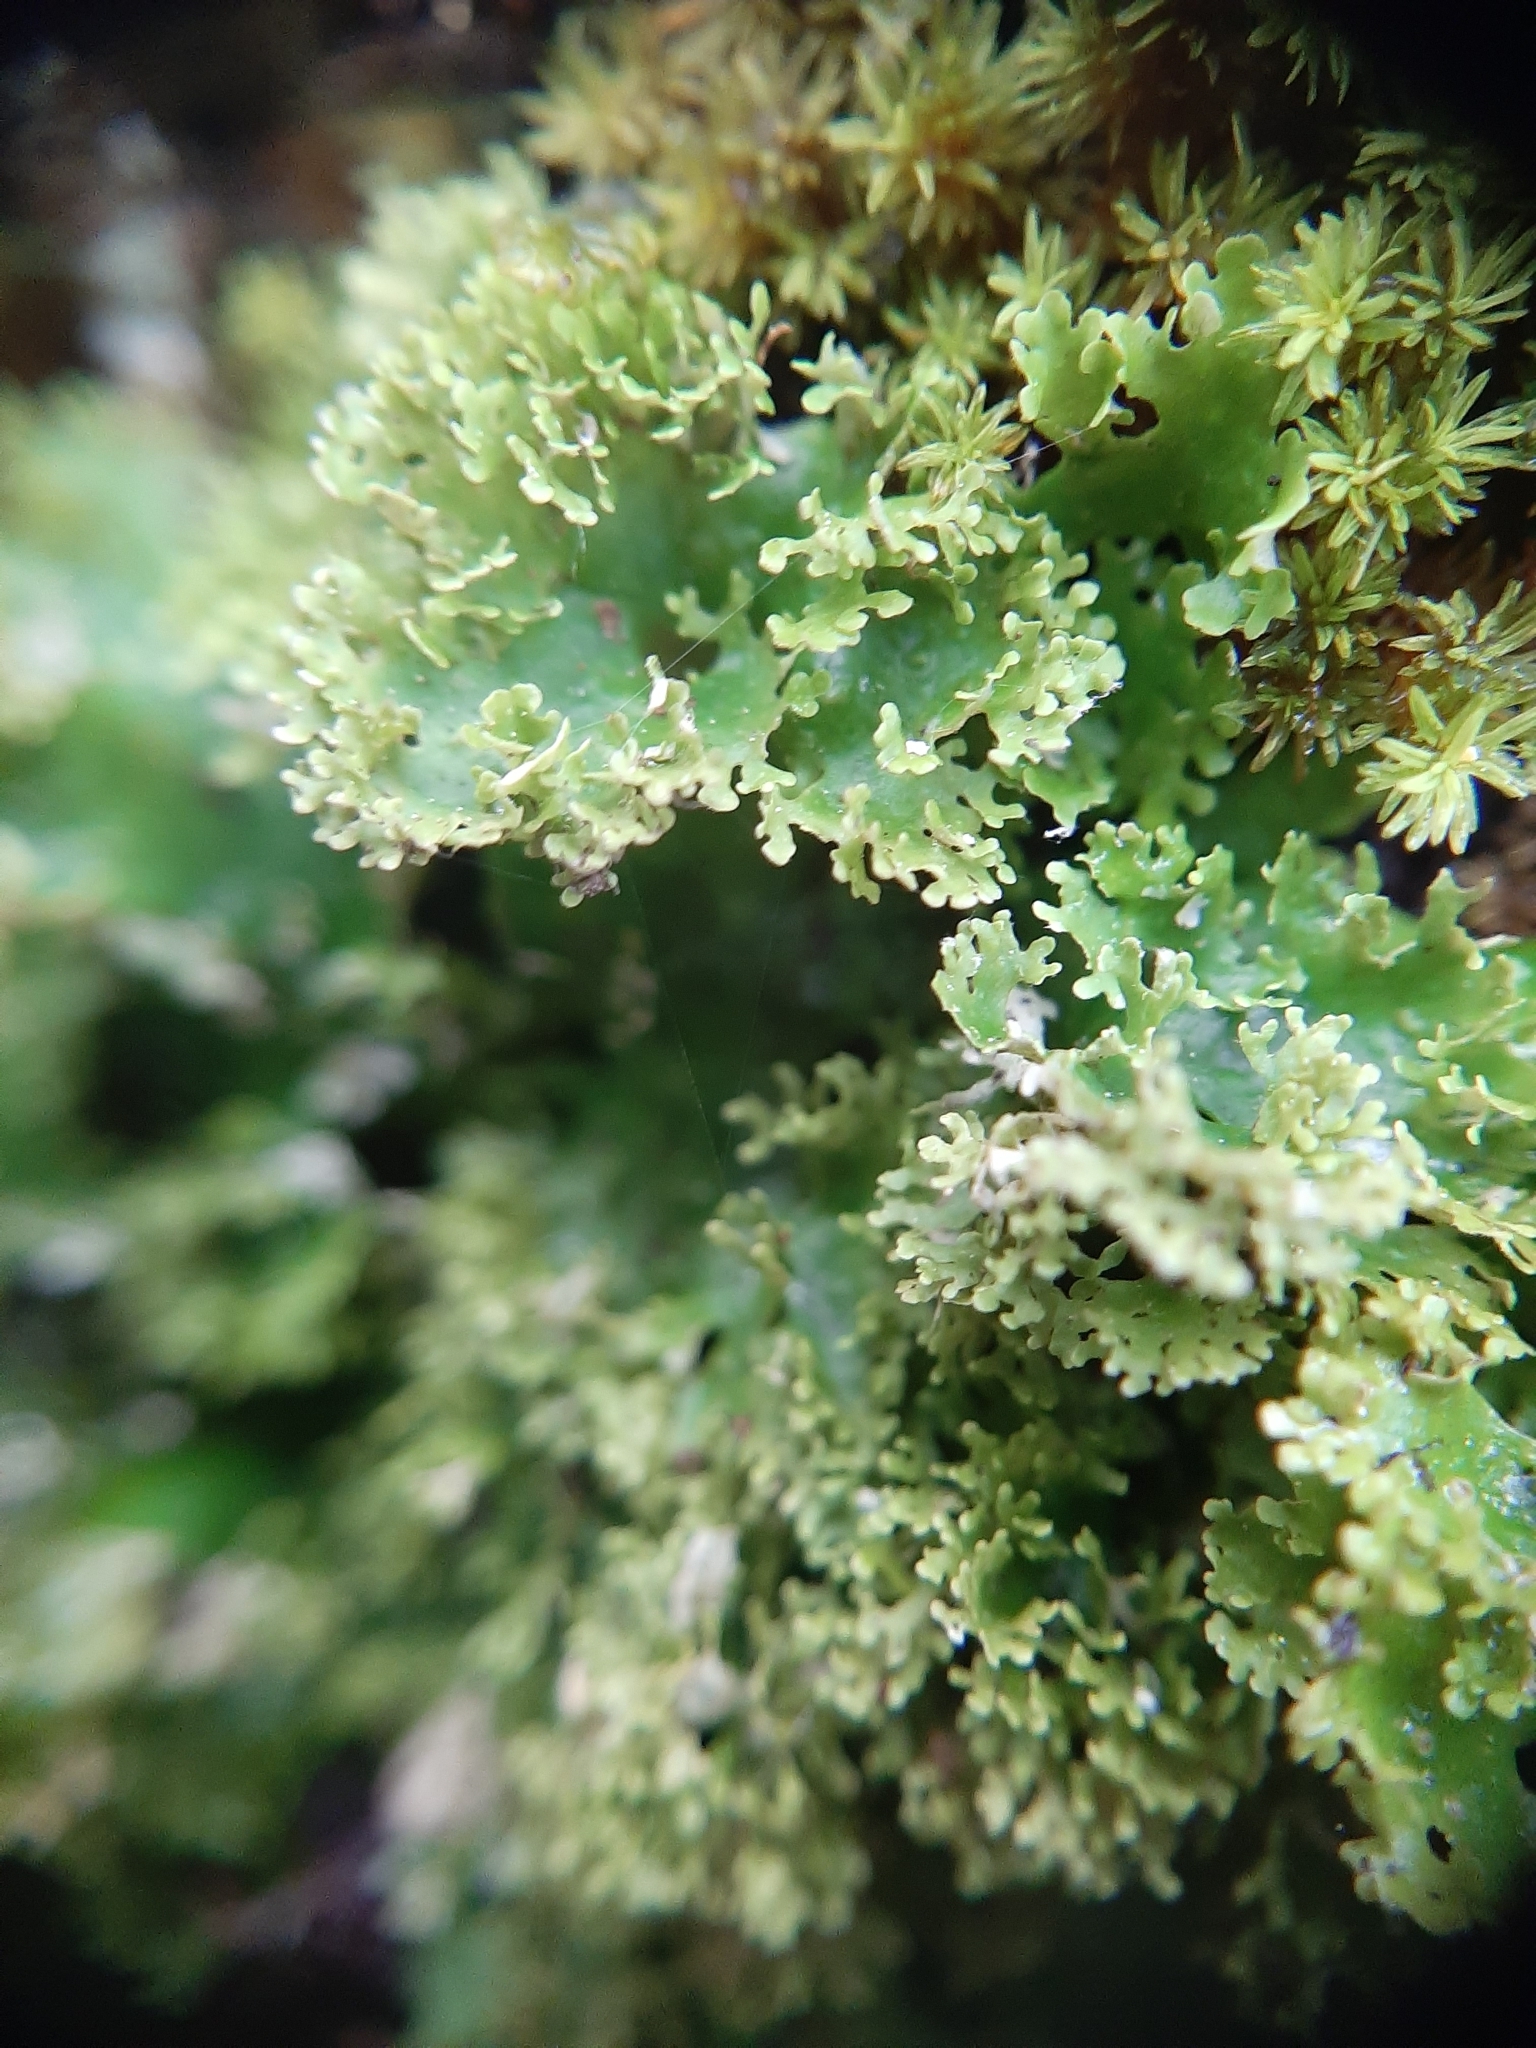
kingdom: Fungi
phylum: Ascomycota
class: Lecanoromycetes
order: Peltigerales
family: Lobariaceae
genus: Sticta
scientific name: Sticta martinii
